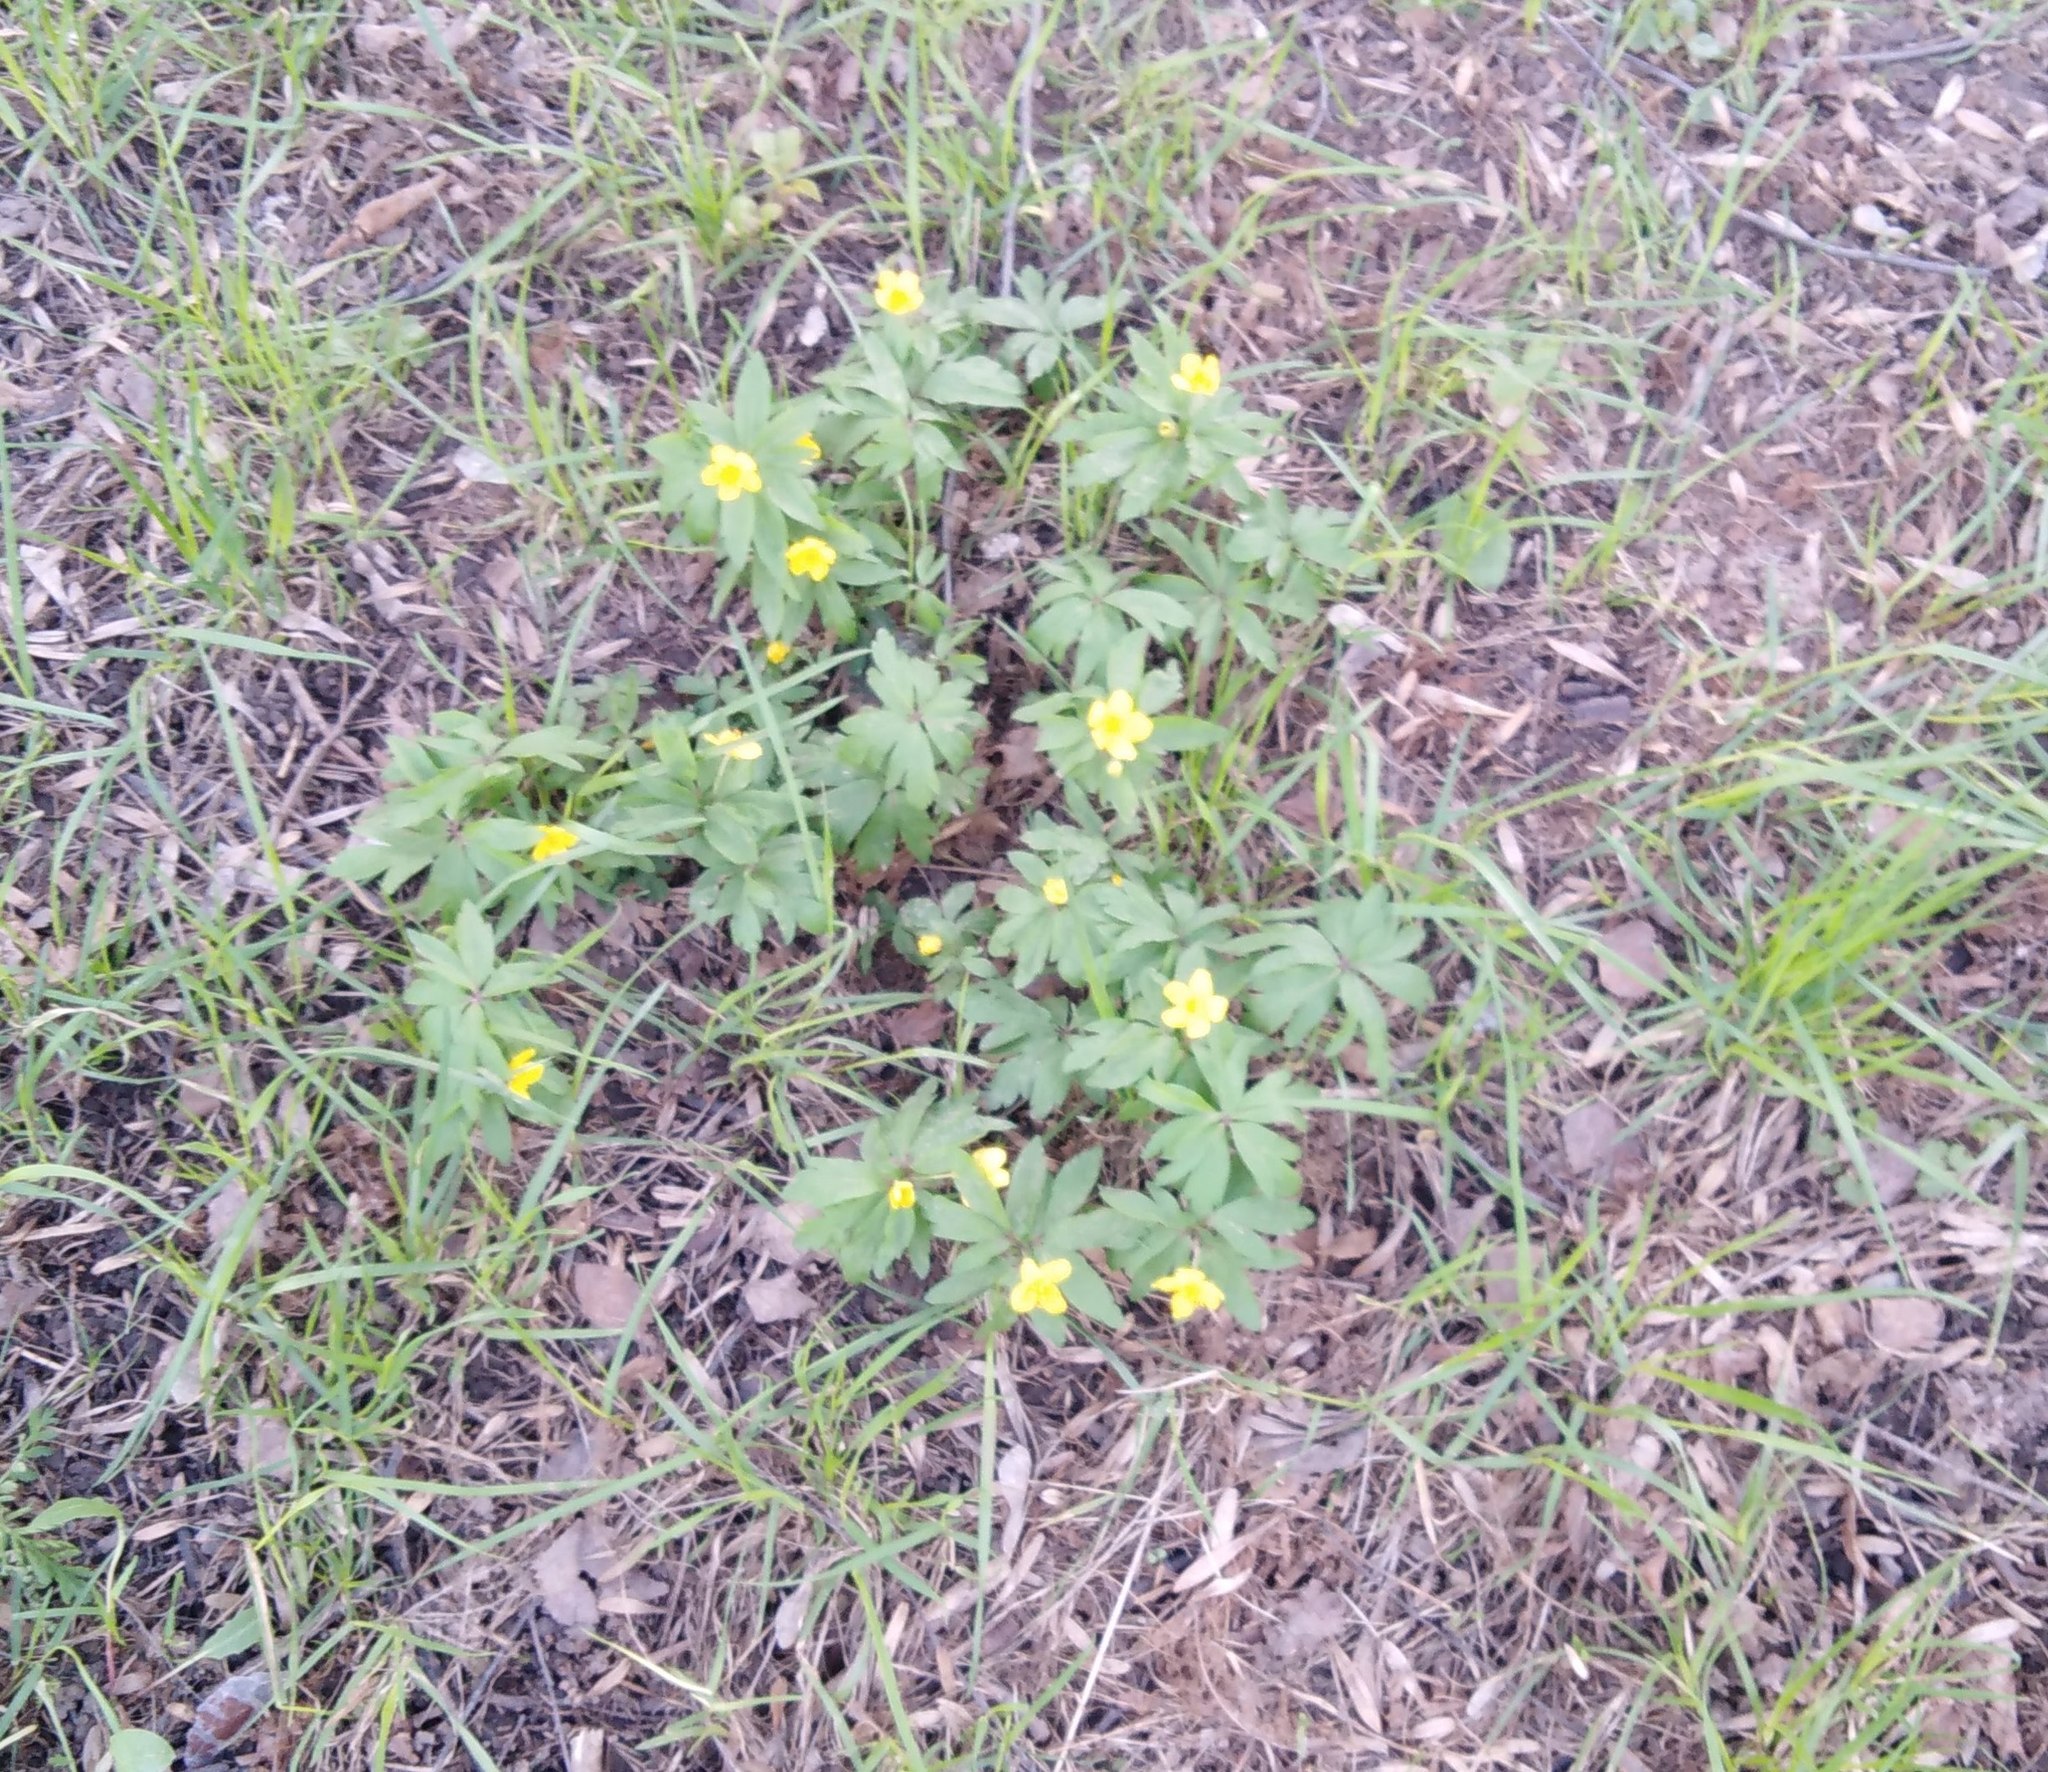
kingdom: Plantae
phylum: Tracheophyta
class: Magnoliopsida
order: Ranunculales
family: Ranunculaceae
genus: Anemone
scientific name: Anemone ranunculoides
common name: Yellow anemone
